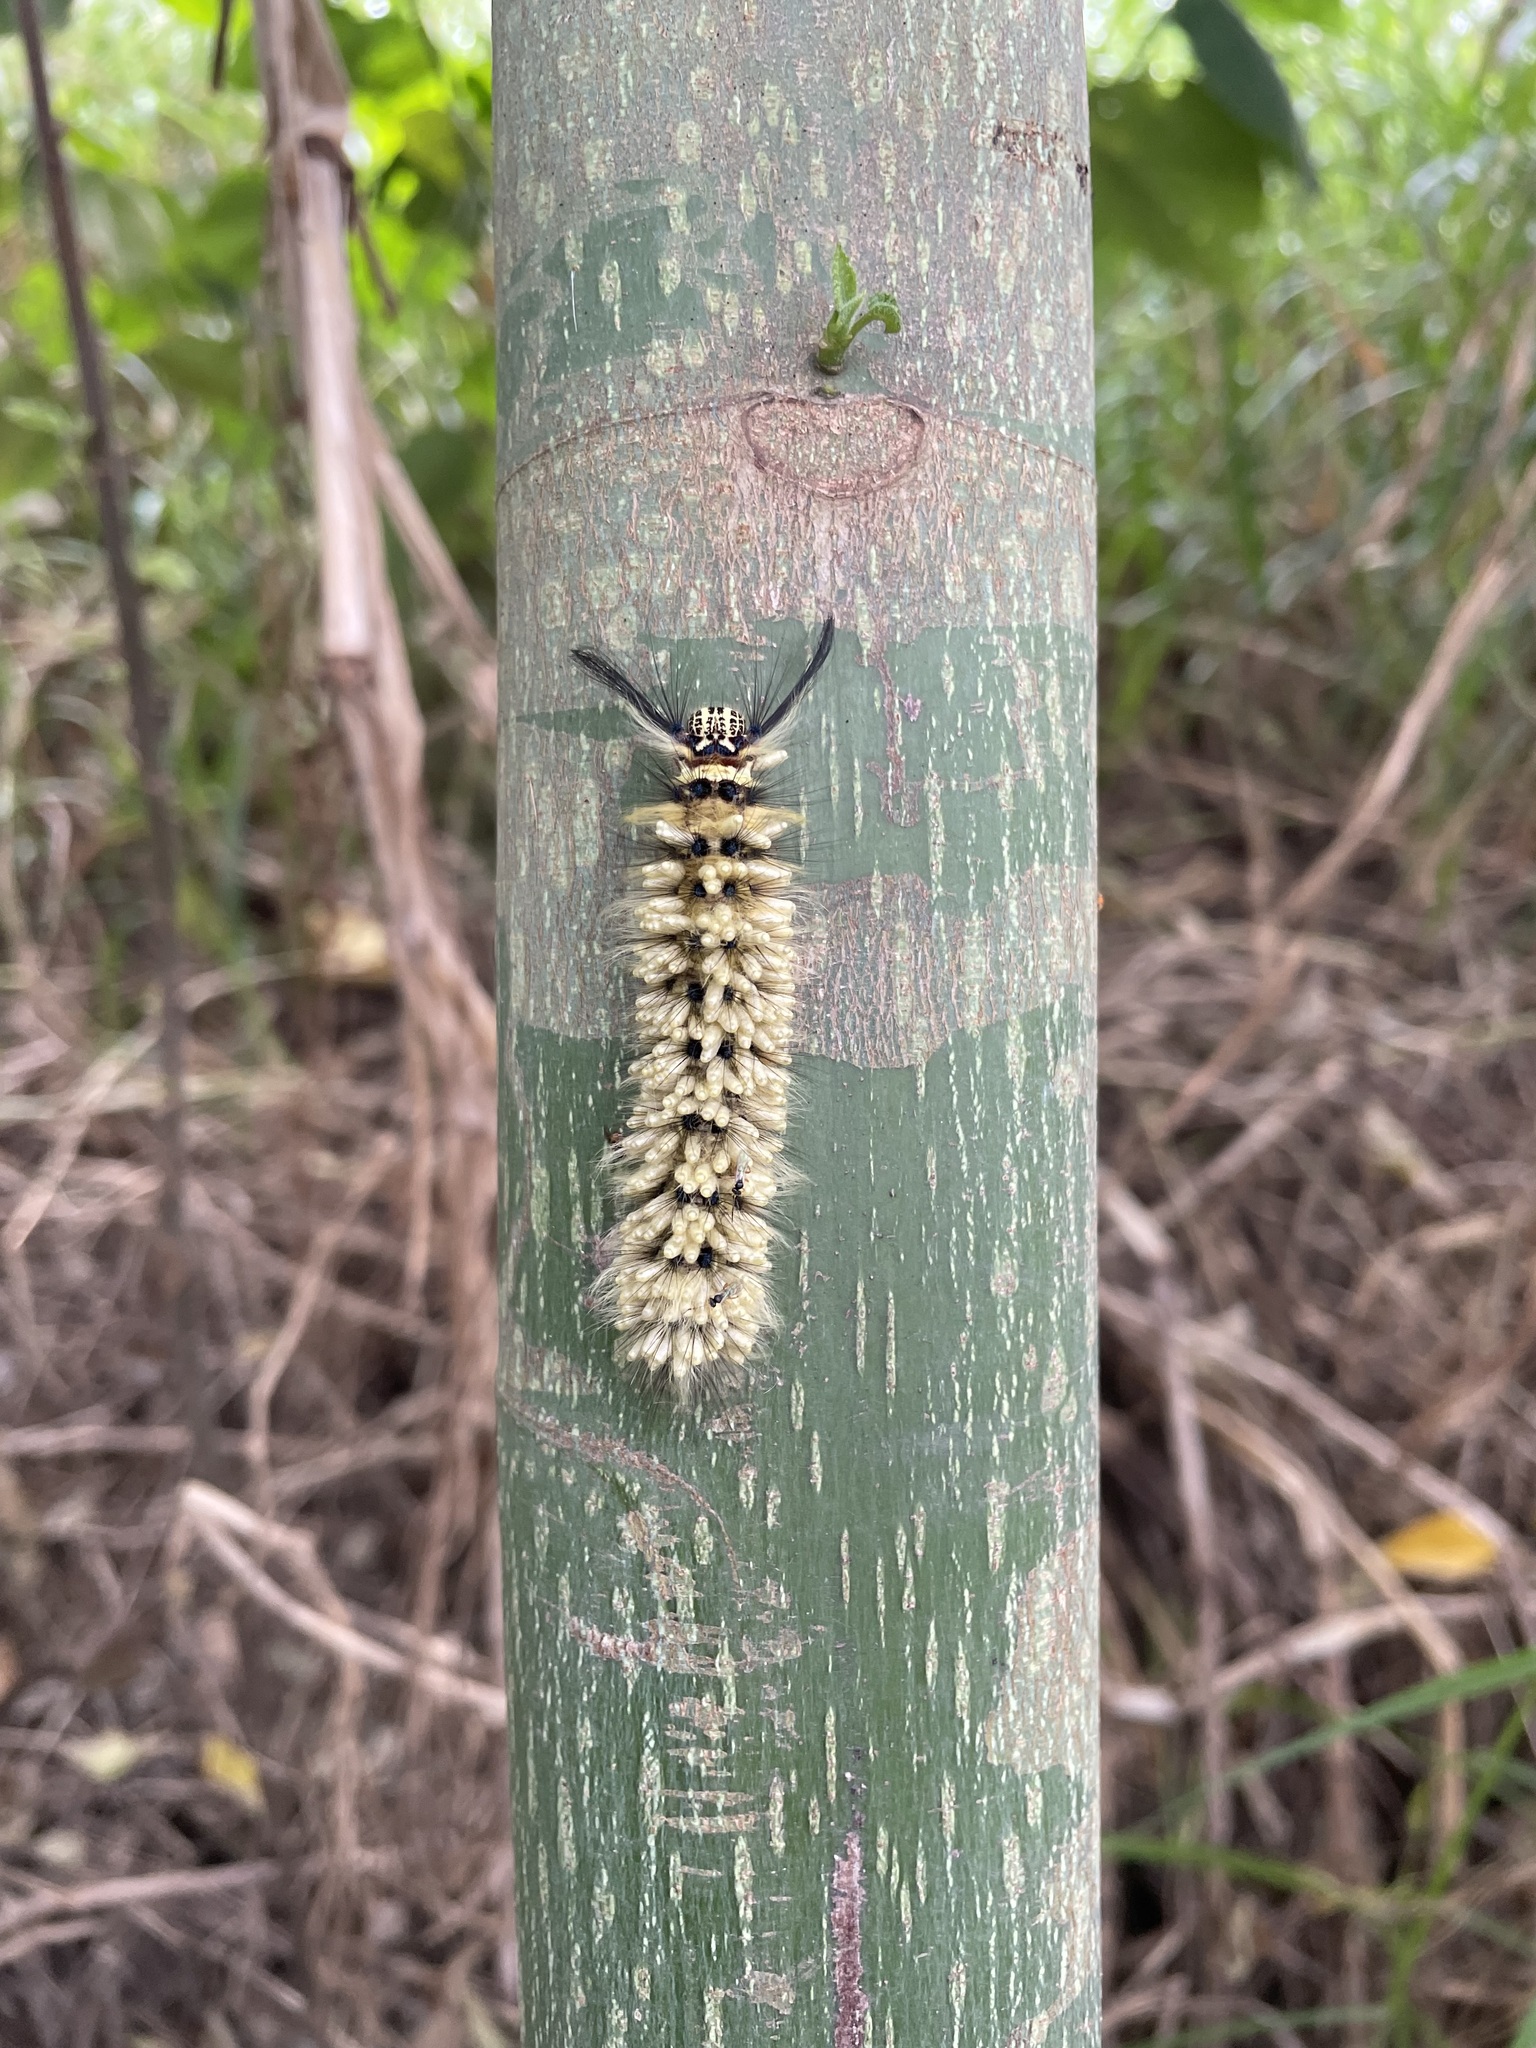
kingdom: Animalia
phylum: Arthropoda
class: Insecta
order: Lepidoptera
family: Lasiocampidae
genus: Trabala
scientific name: Trabala vishnou
